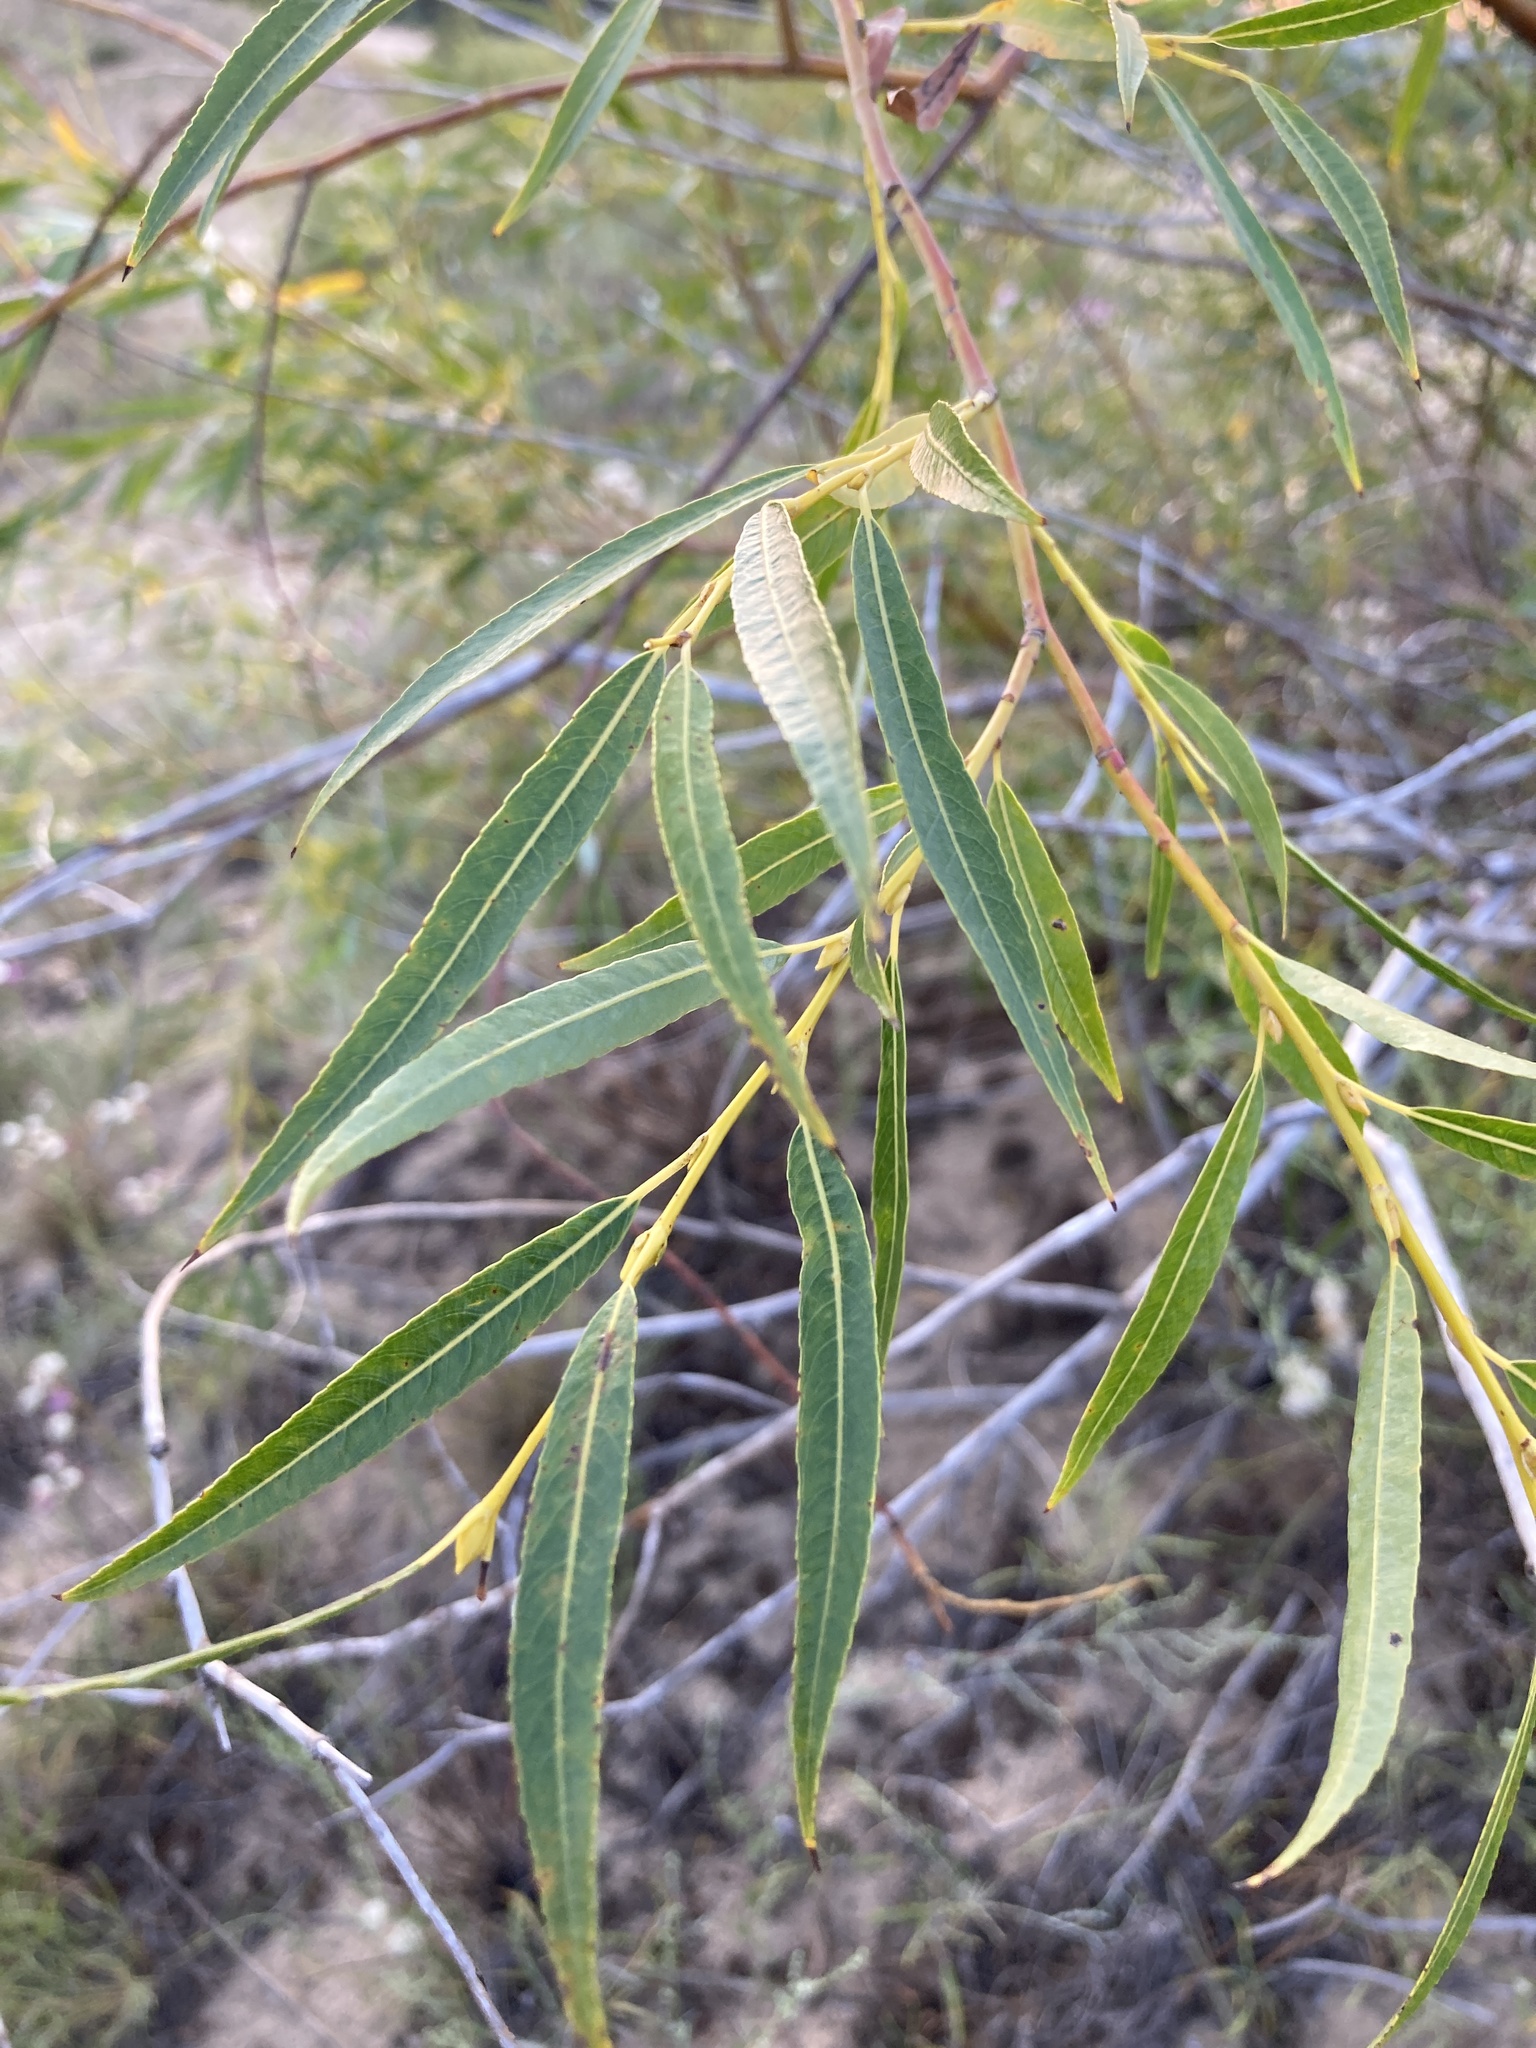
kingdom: Plantae
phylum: Tracheophyta
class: Magnoliopsida
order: Malpighiales
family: Salicaceae
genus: Salix
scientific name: Salix acutifolia
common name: Siberian violet-willow
